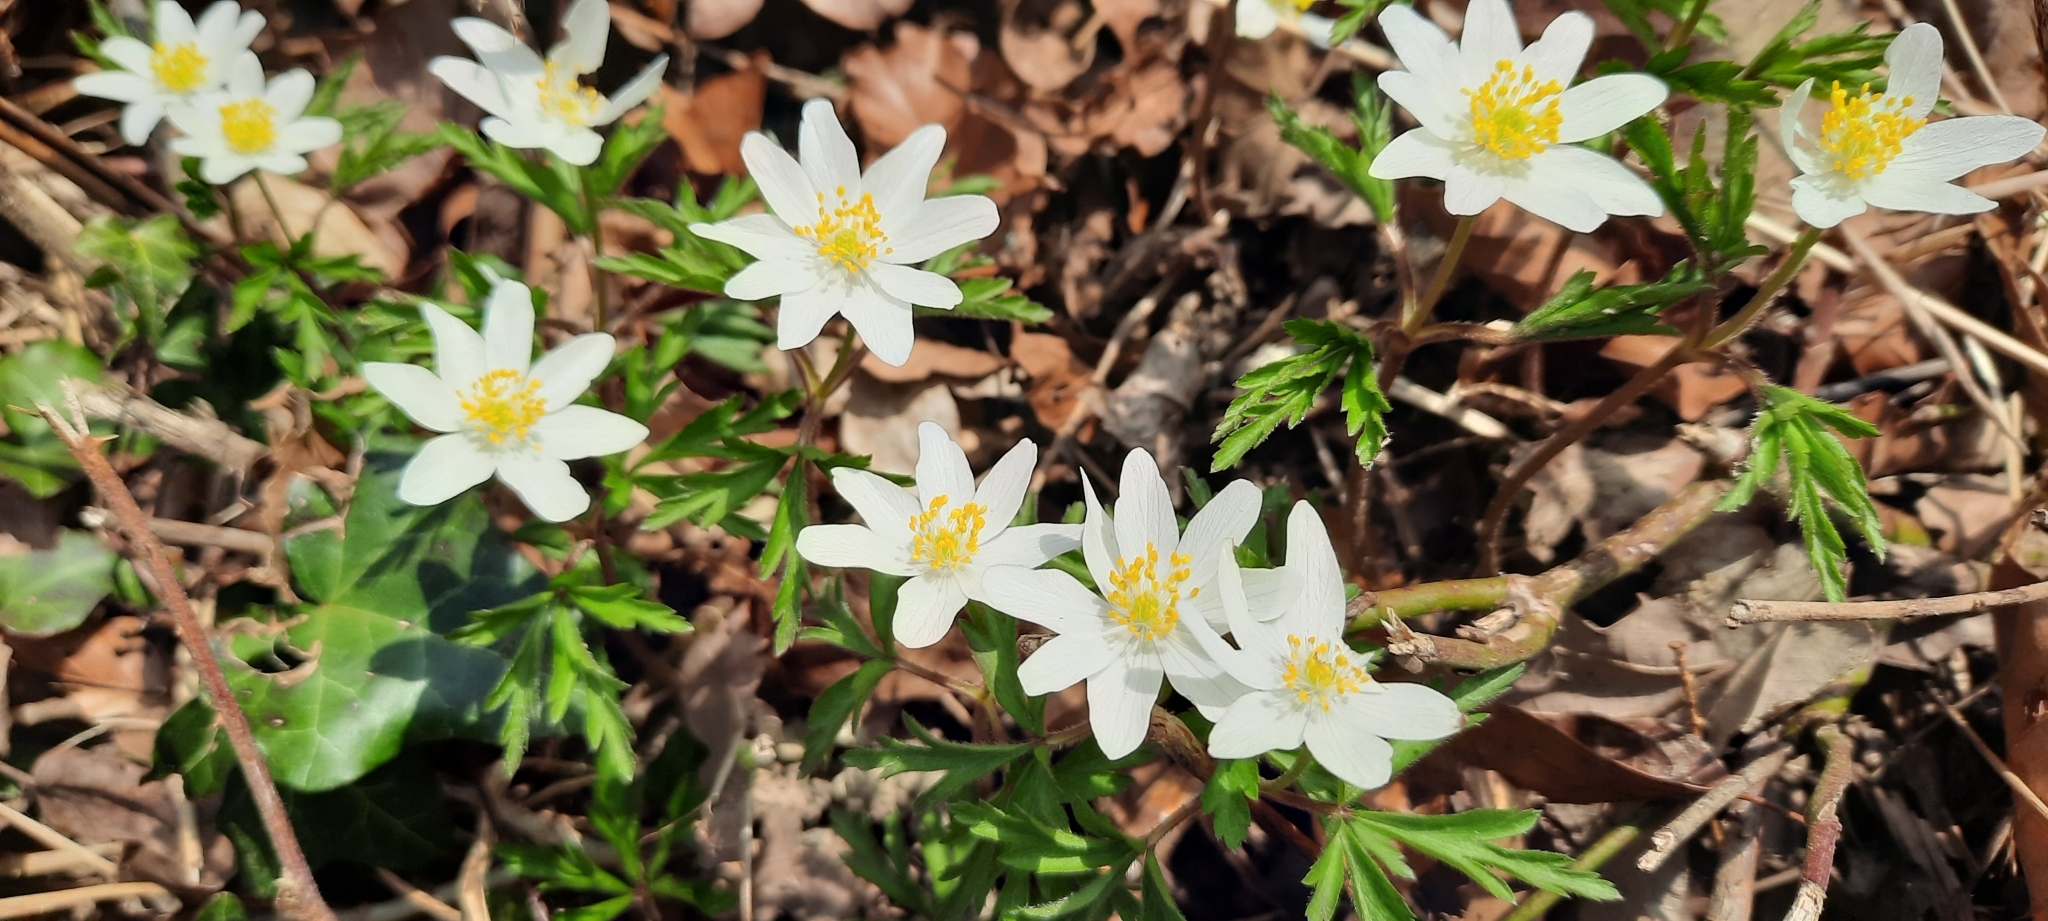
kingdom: Plantae
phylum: Tracheophyta
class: Magnoliopsida
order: Ranunculales
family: Ranunculaceae
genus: Anemone
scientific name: Anemone nemorosa
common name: Wood anemone
